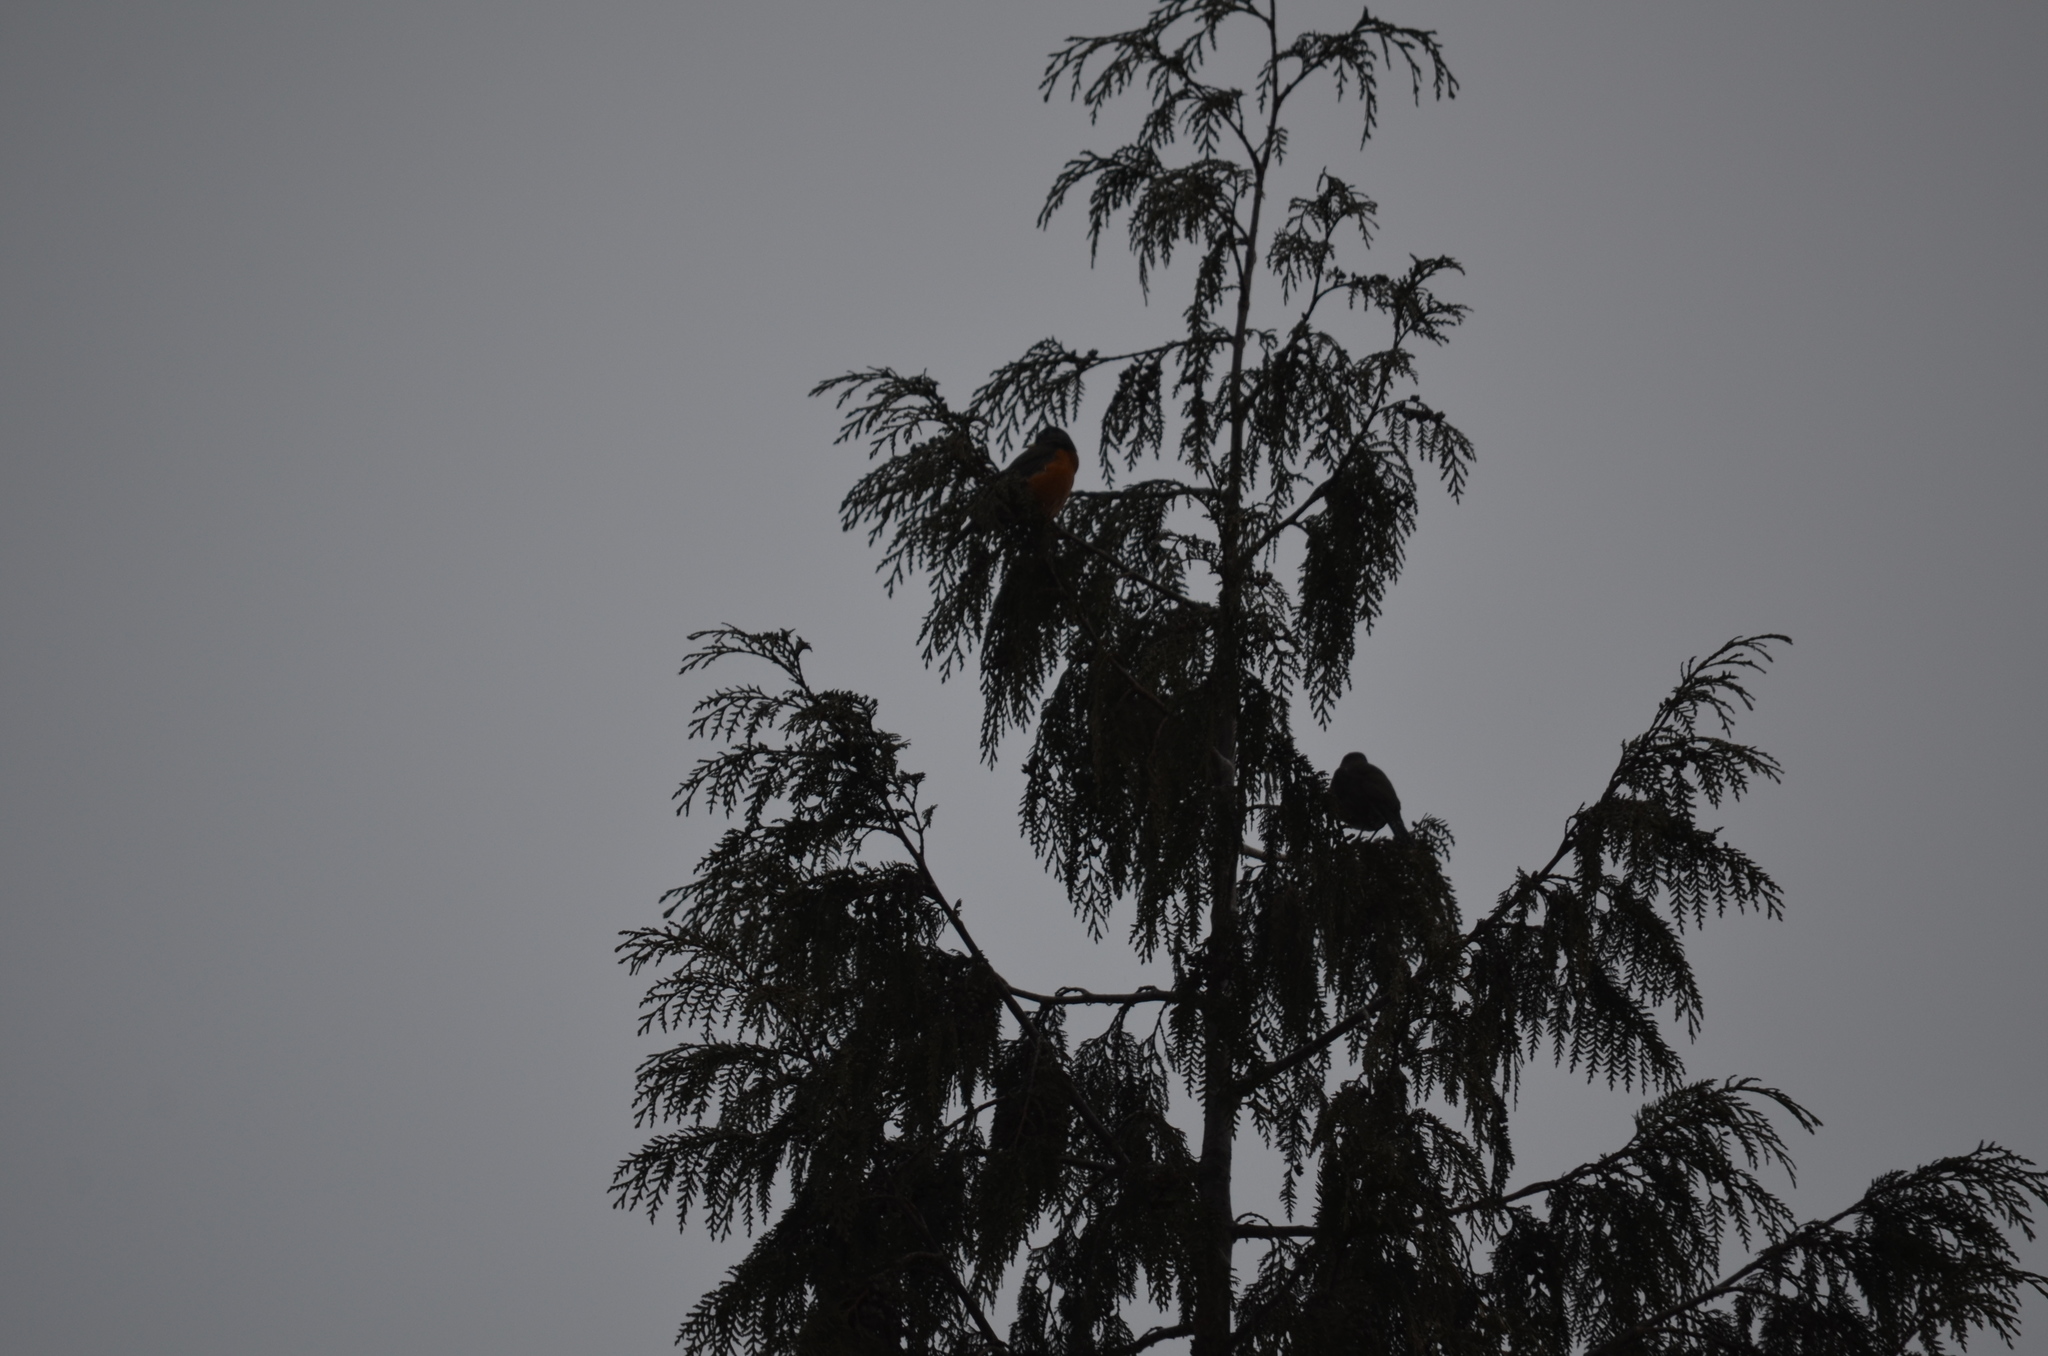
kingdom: Animalia
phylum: Chordata
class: Aves
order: Passeriformes
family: Turdidae
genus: Turdus
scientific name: Turdus migratorius
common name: American robin
